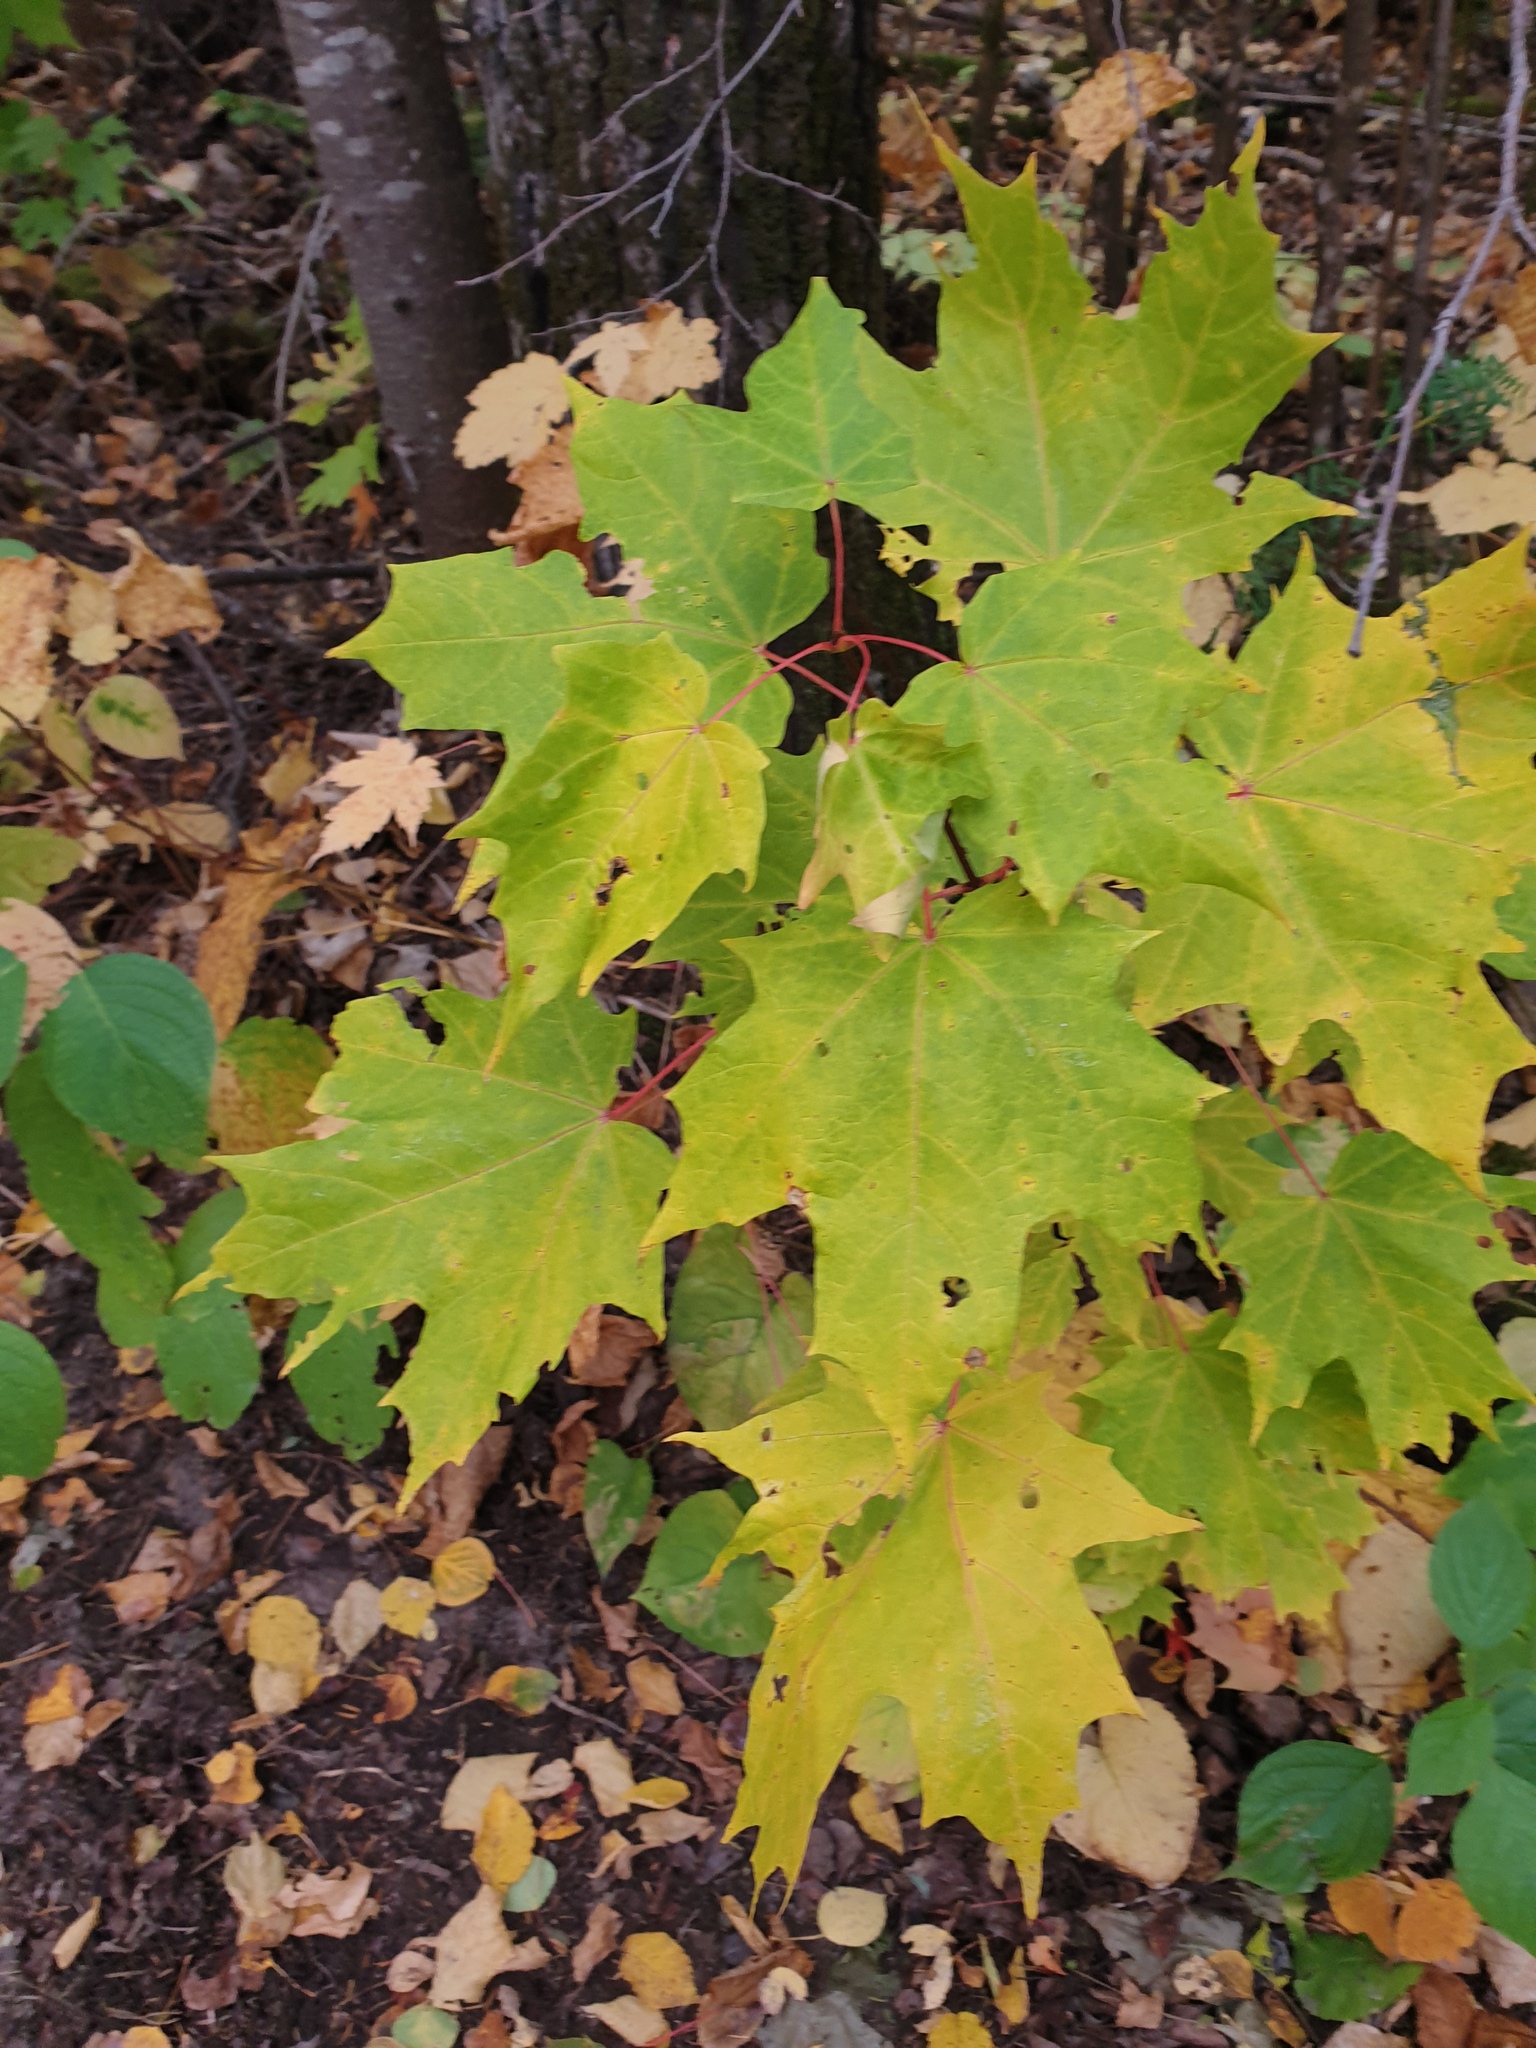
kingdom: Plantae
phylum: Tracheophyta
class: Magnoliopsida
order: Sapindales
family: Sapindaceae
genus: Acer
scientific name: Acer saccharum
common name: Sugar maple
